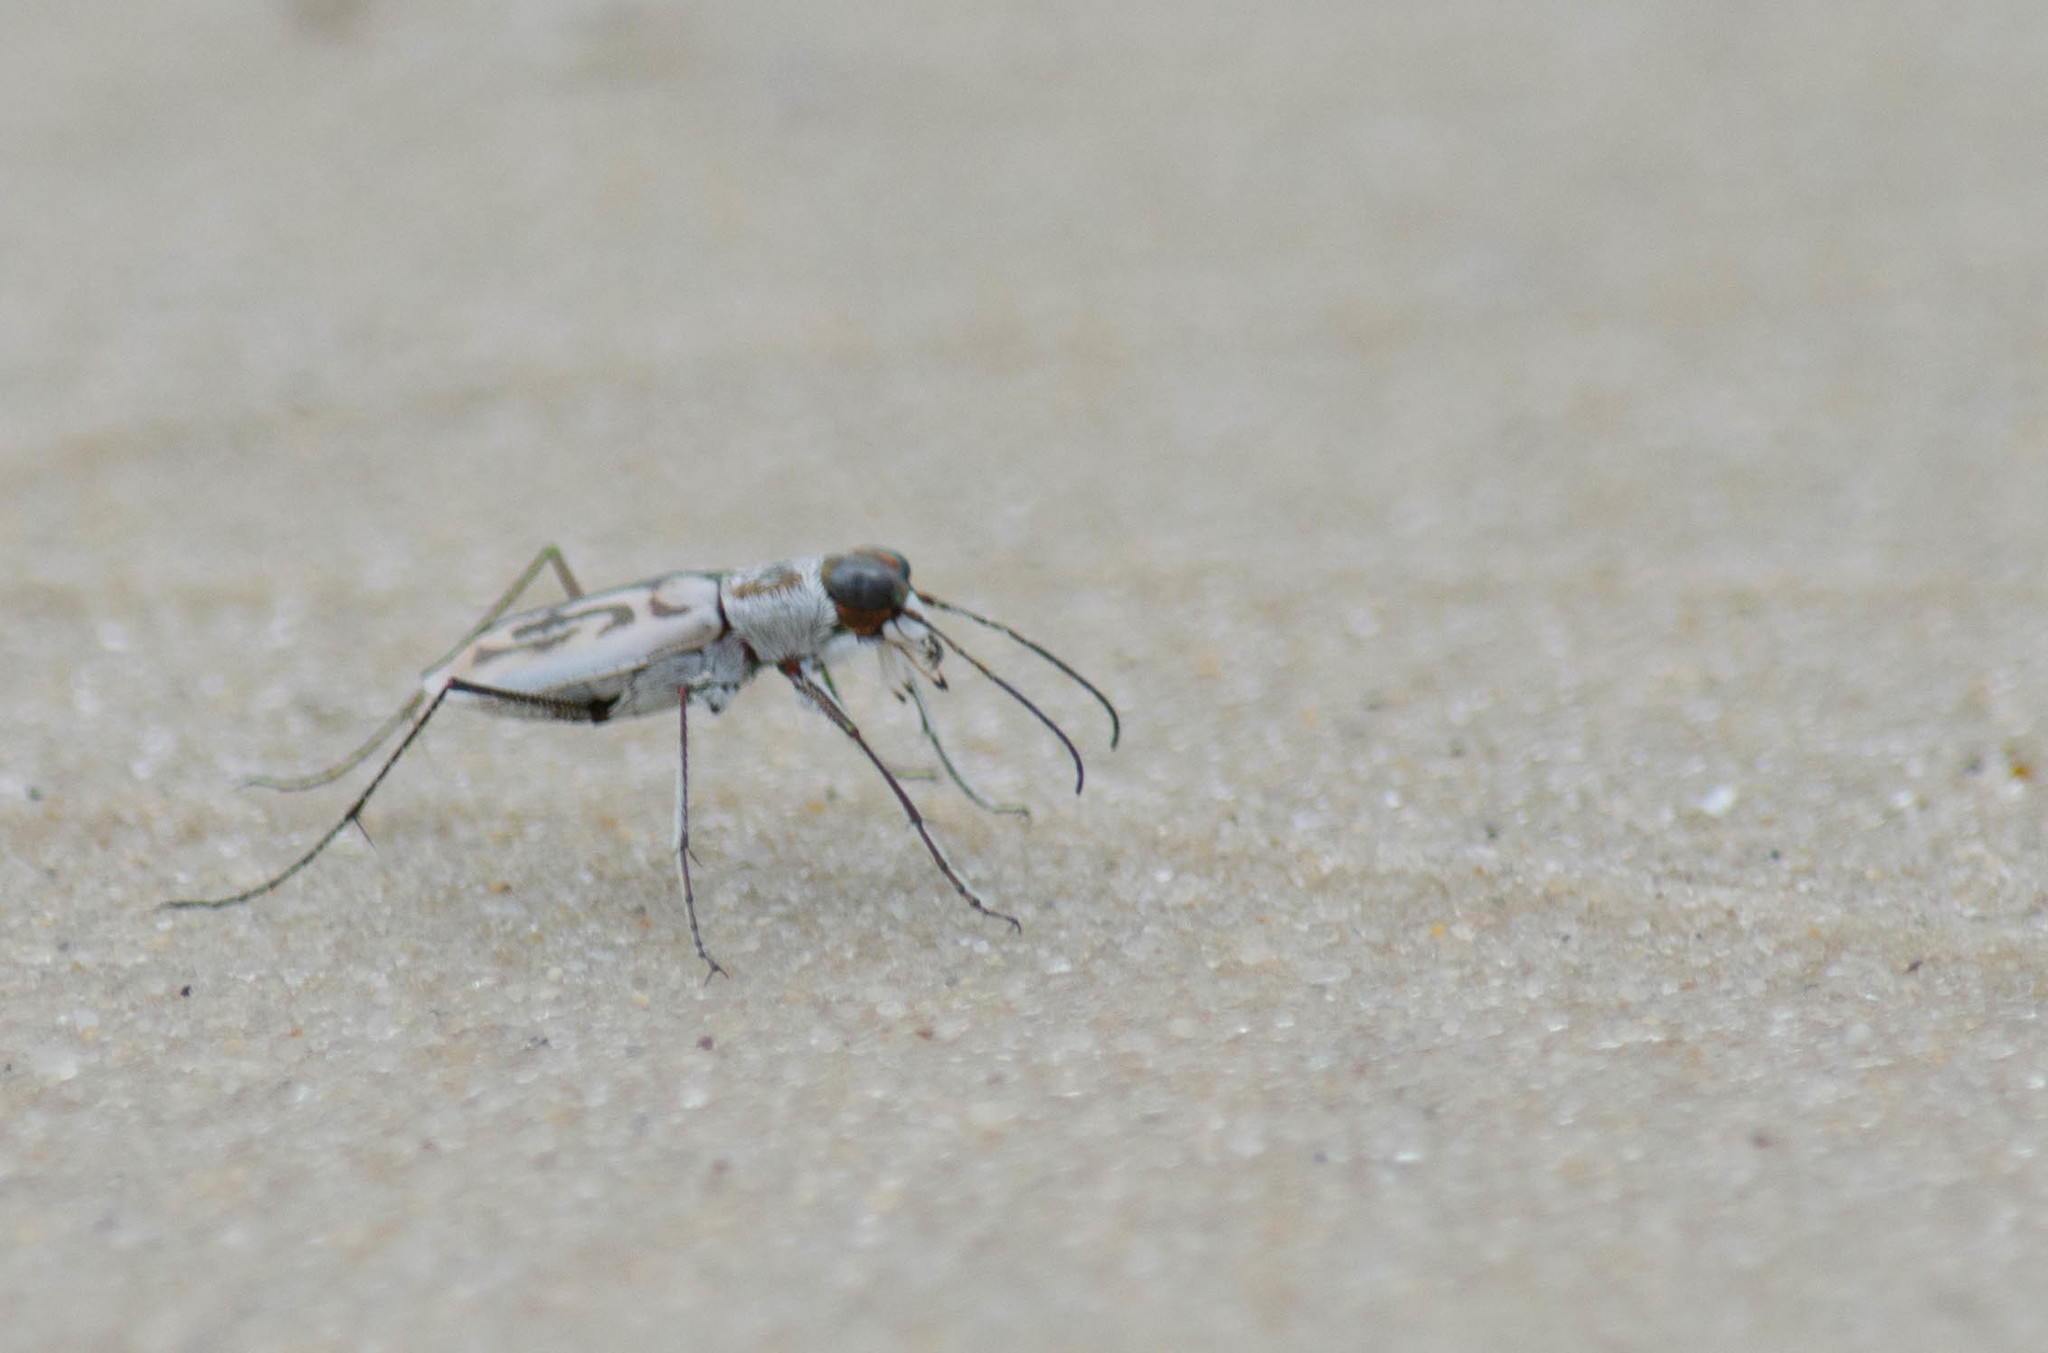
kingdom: Animalia
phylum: Arthropoda
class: Insecta
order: Coleoptera
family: Carabidae
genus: Habroscelimorpha
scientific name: Habroscelimorpha dorsalis
